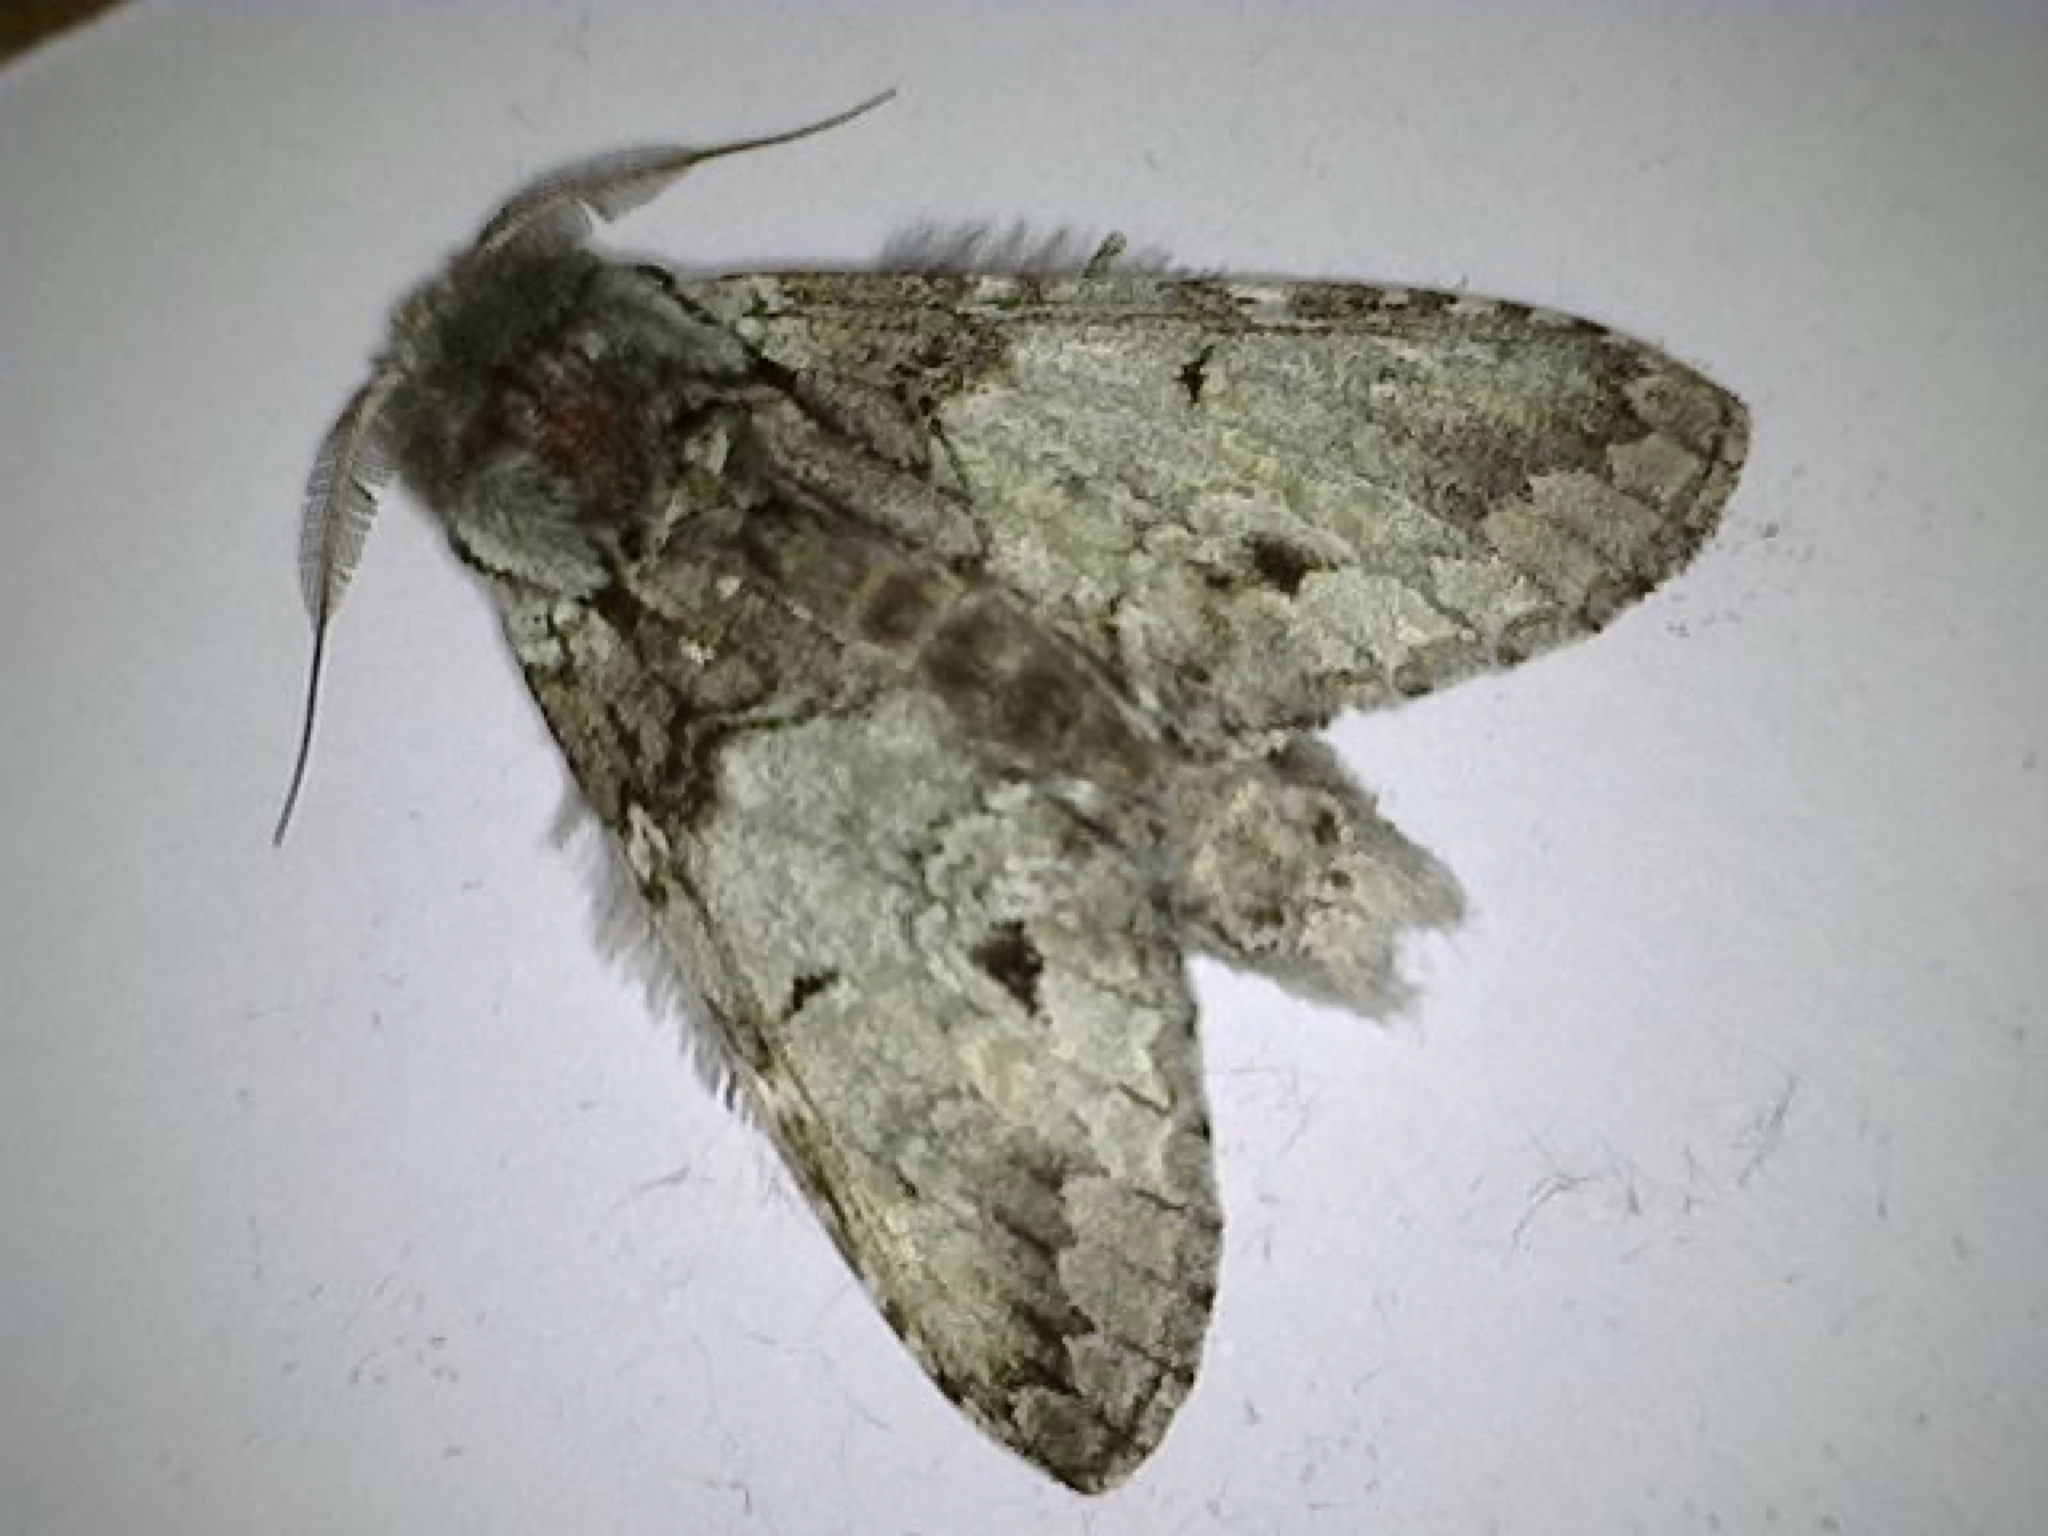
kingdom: Animalia
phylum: Arthropoda
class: Insecta
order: Lepidoptera
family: Notodontidae
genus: Macrurocampa
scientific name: Macrurocampa marthesia
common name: Mottled prominent
